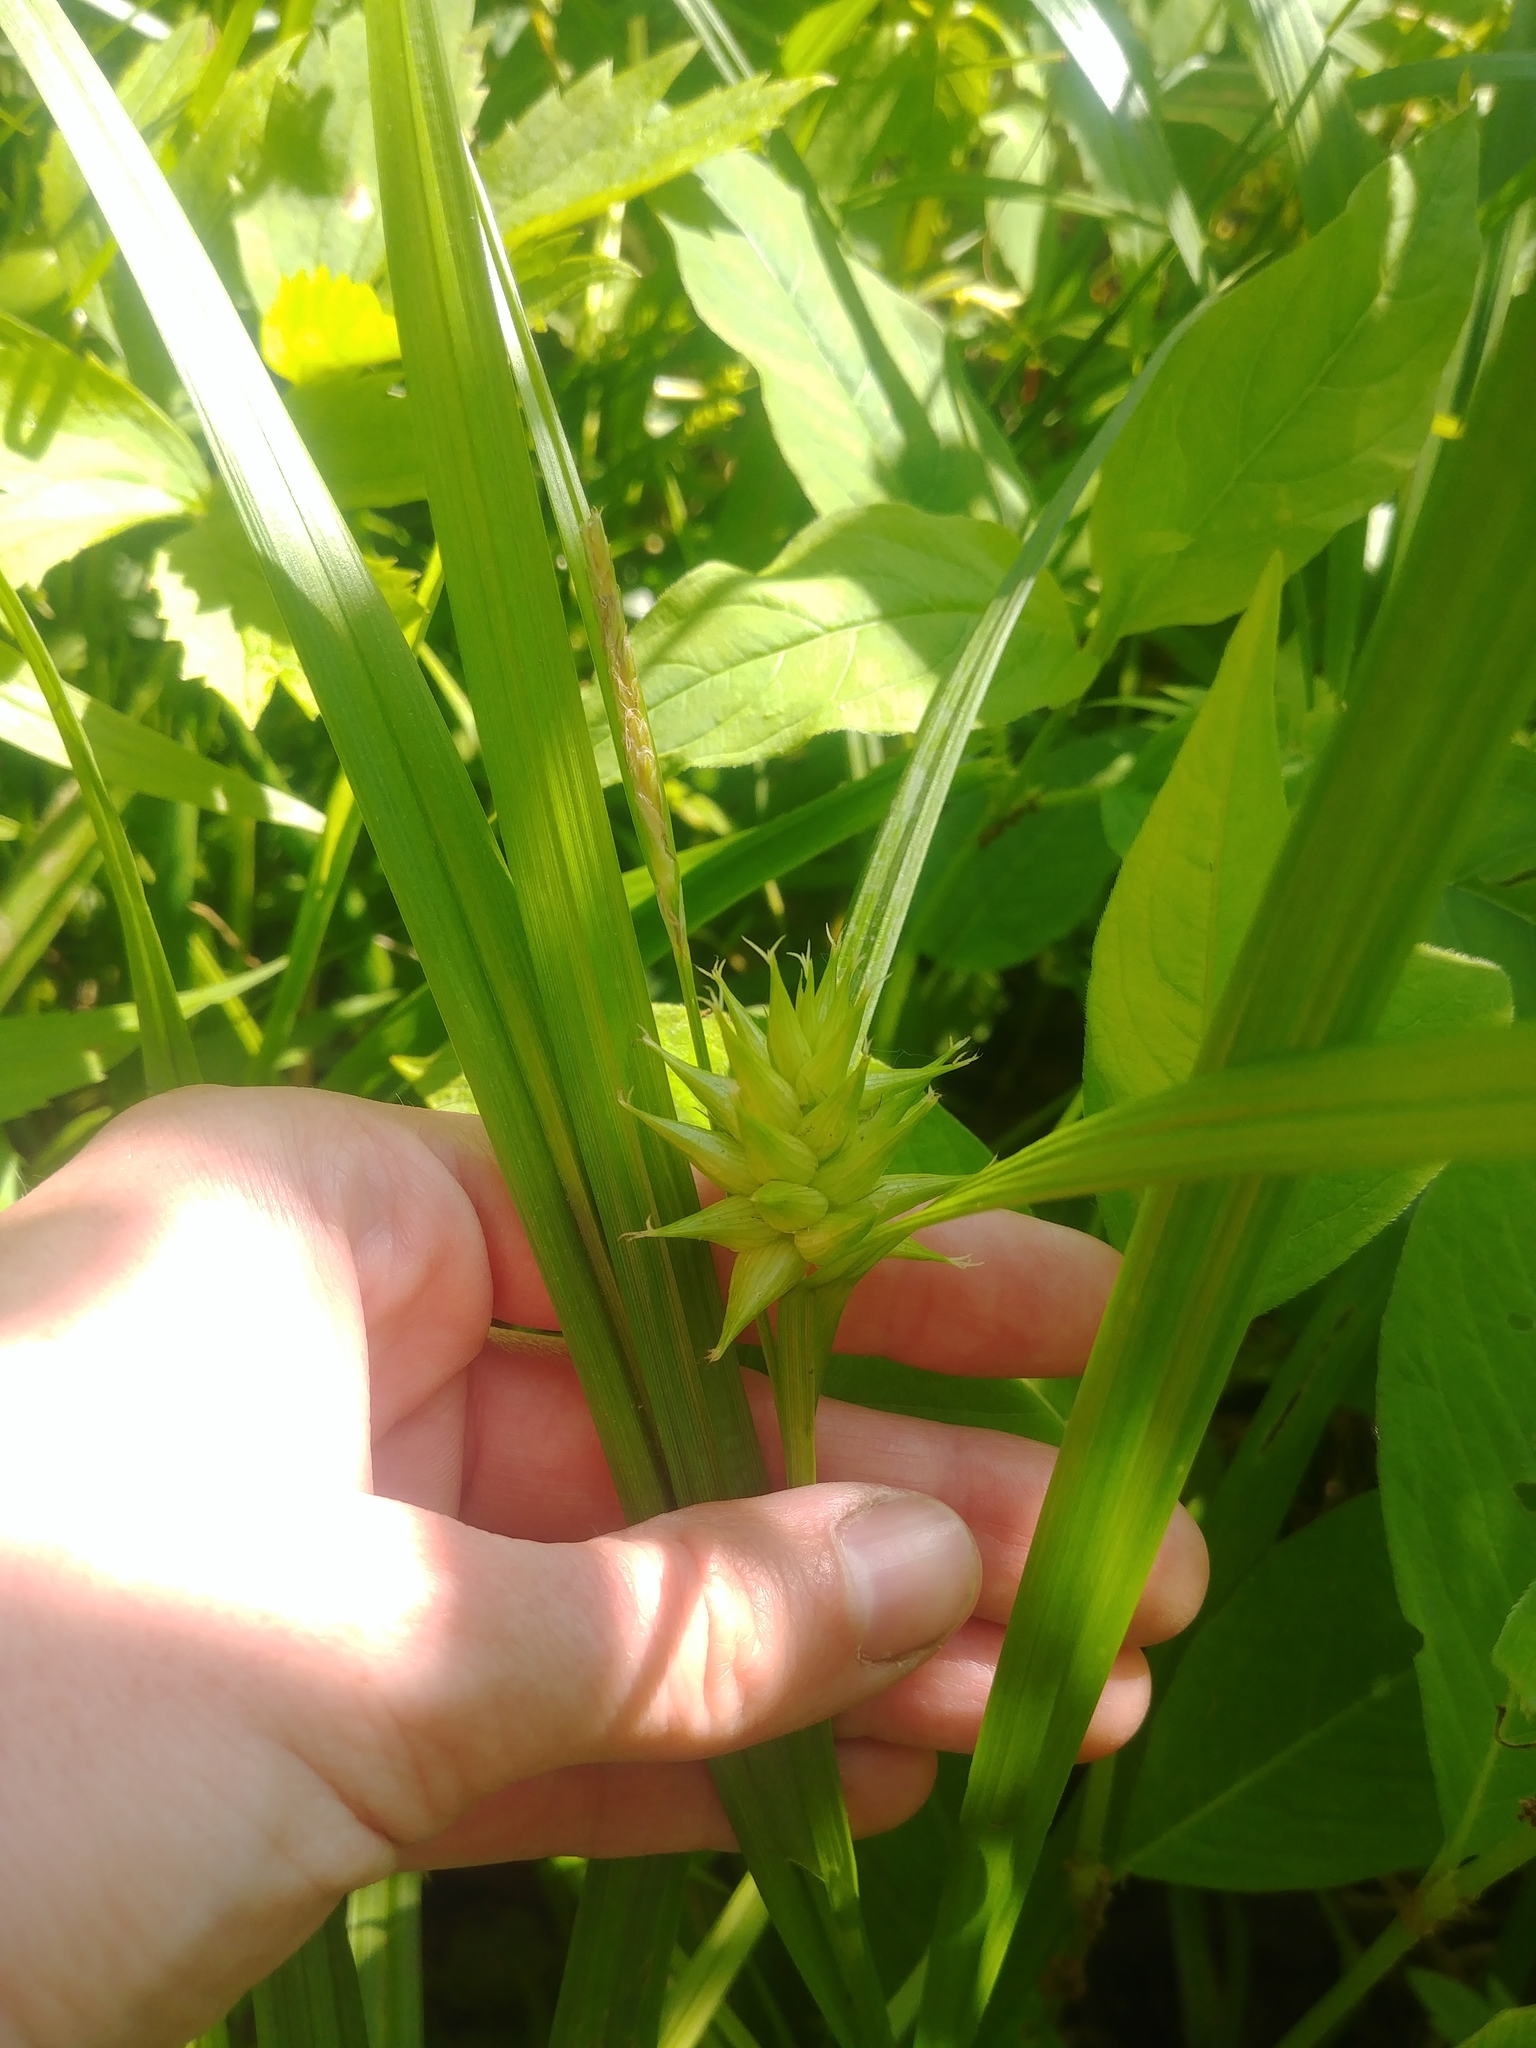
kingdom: Plantae
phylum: Tracheophyta
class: Liliopsida
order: Poales
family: Cyperaceae
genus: Carex
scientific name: Carex grayi
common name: Asa gray's sedge
